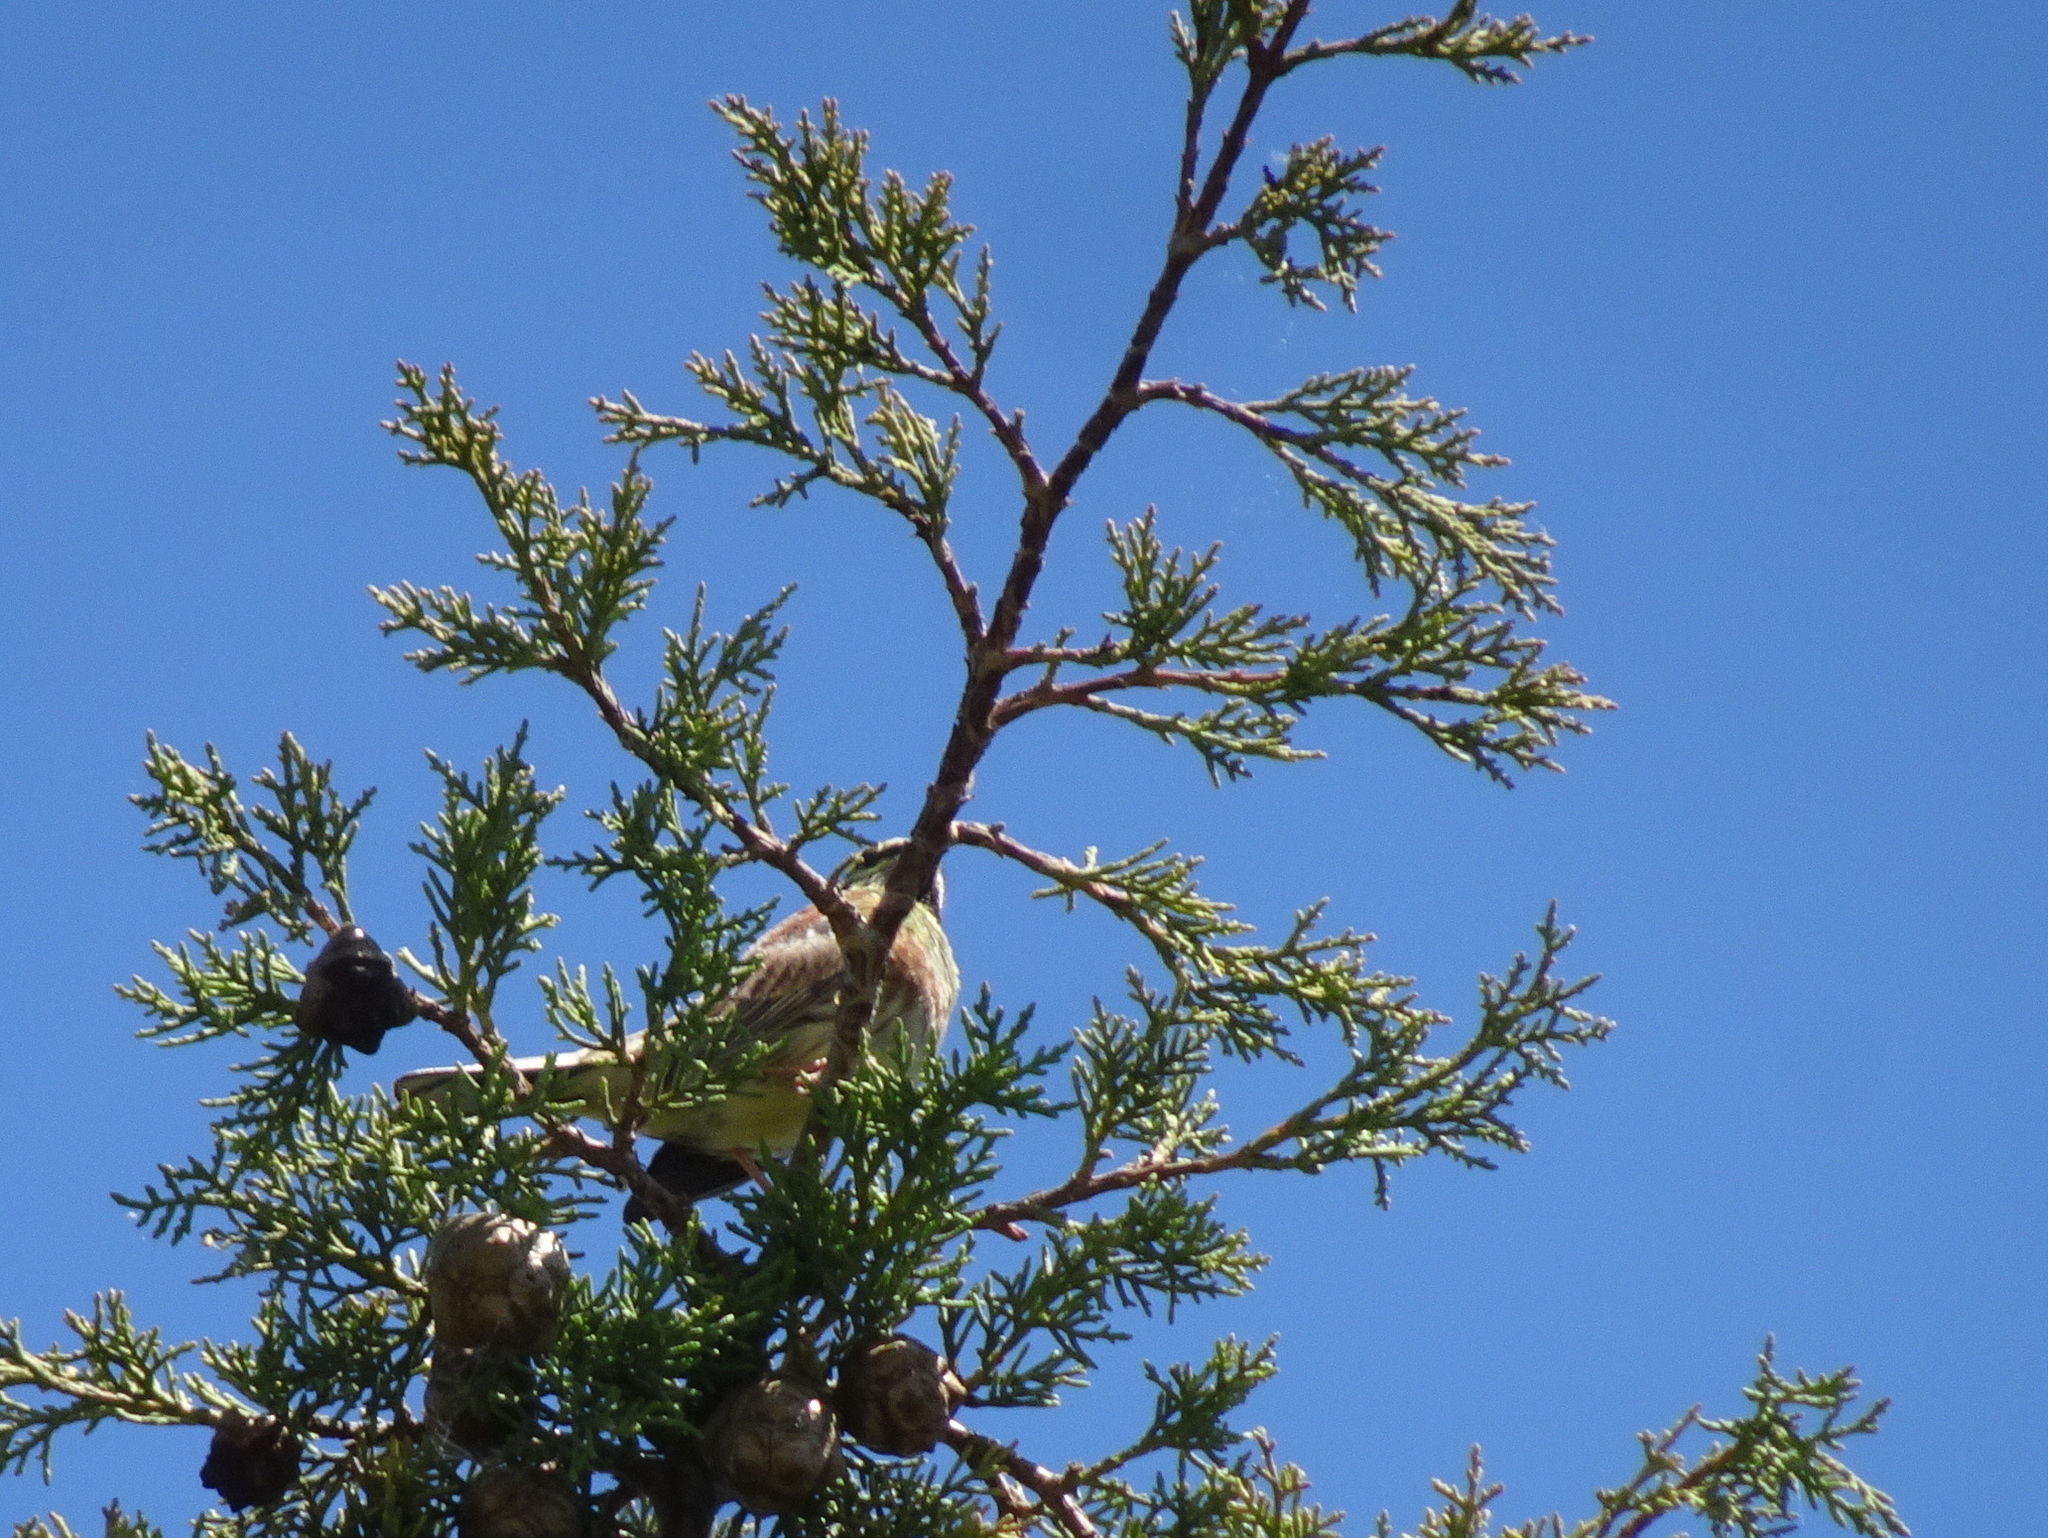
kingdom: Animalia
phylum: Chordata
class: Aves
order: Passeriformes
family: Emberizidae
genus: Emberiza
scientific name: Emberiza cirlus
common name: Cirl bunting
